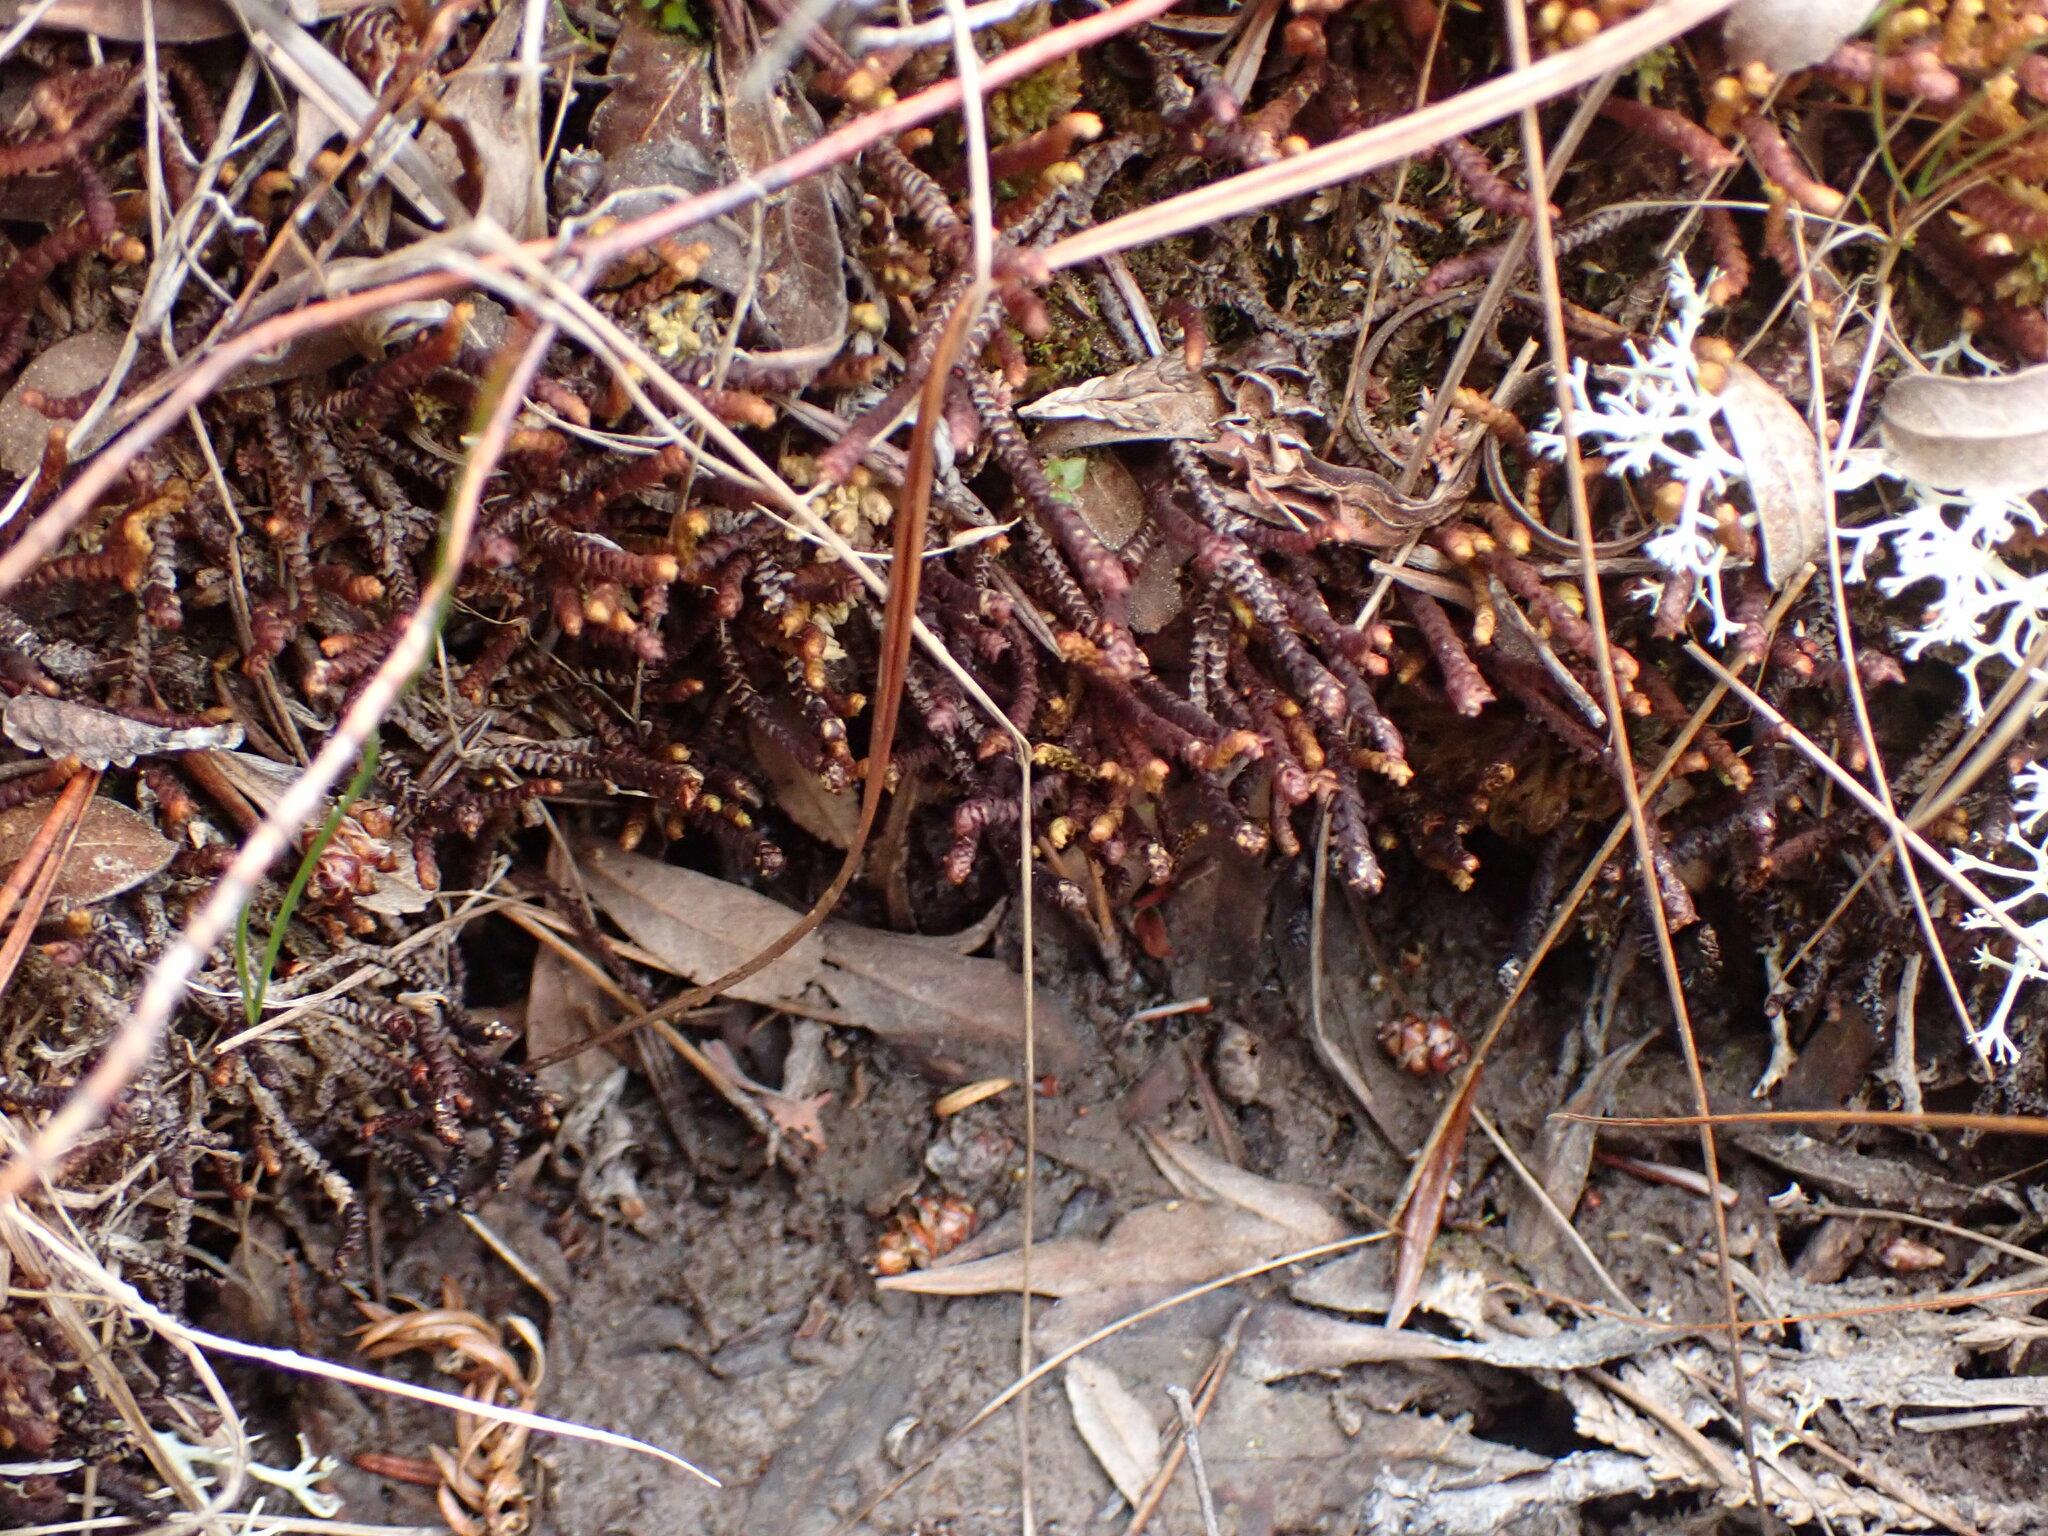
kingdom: Plantae
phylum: Marchantiophyta
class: Jungermanniopsida
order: Pleuroziales
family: Pleuroziaceae
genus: Pleurozia
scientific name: Pleurozia purpurea
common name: Purple spoonwort
